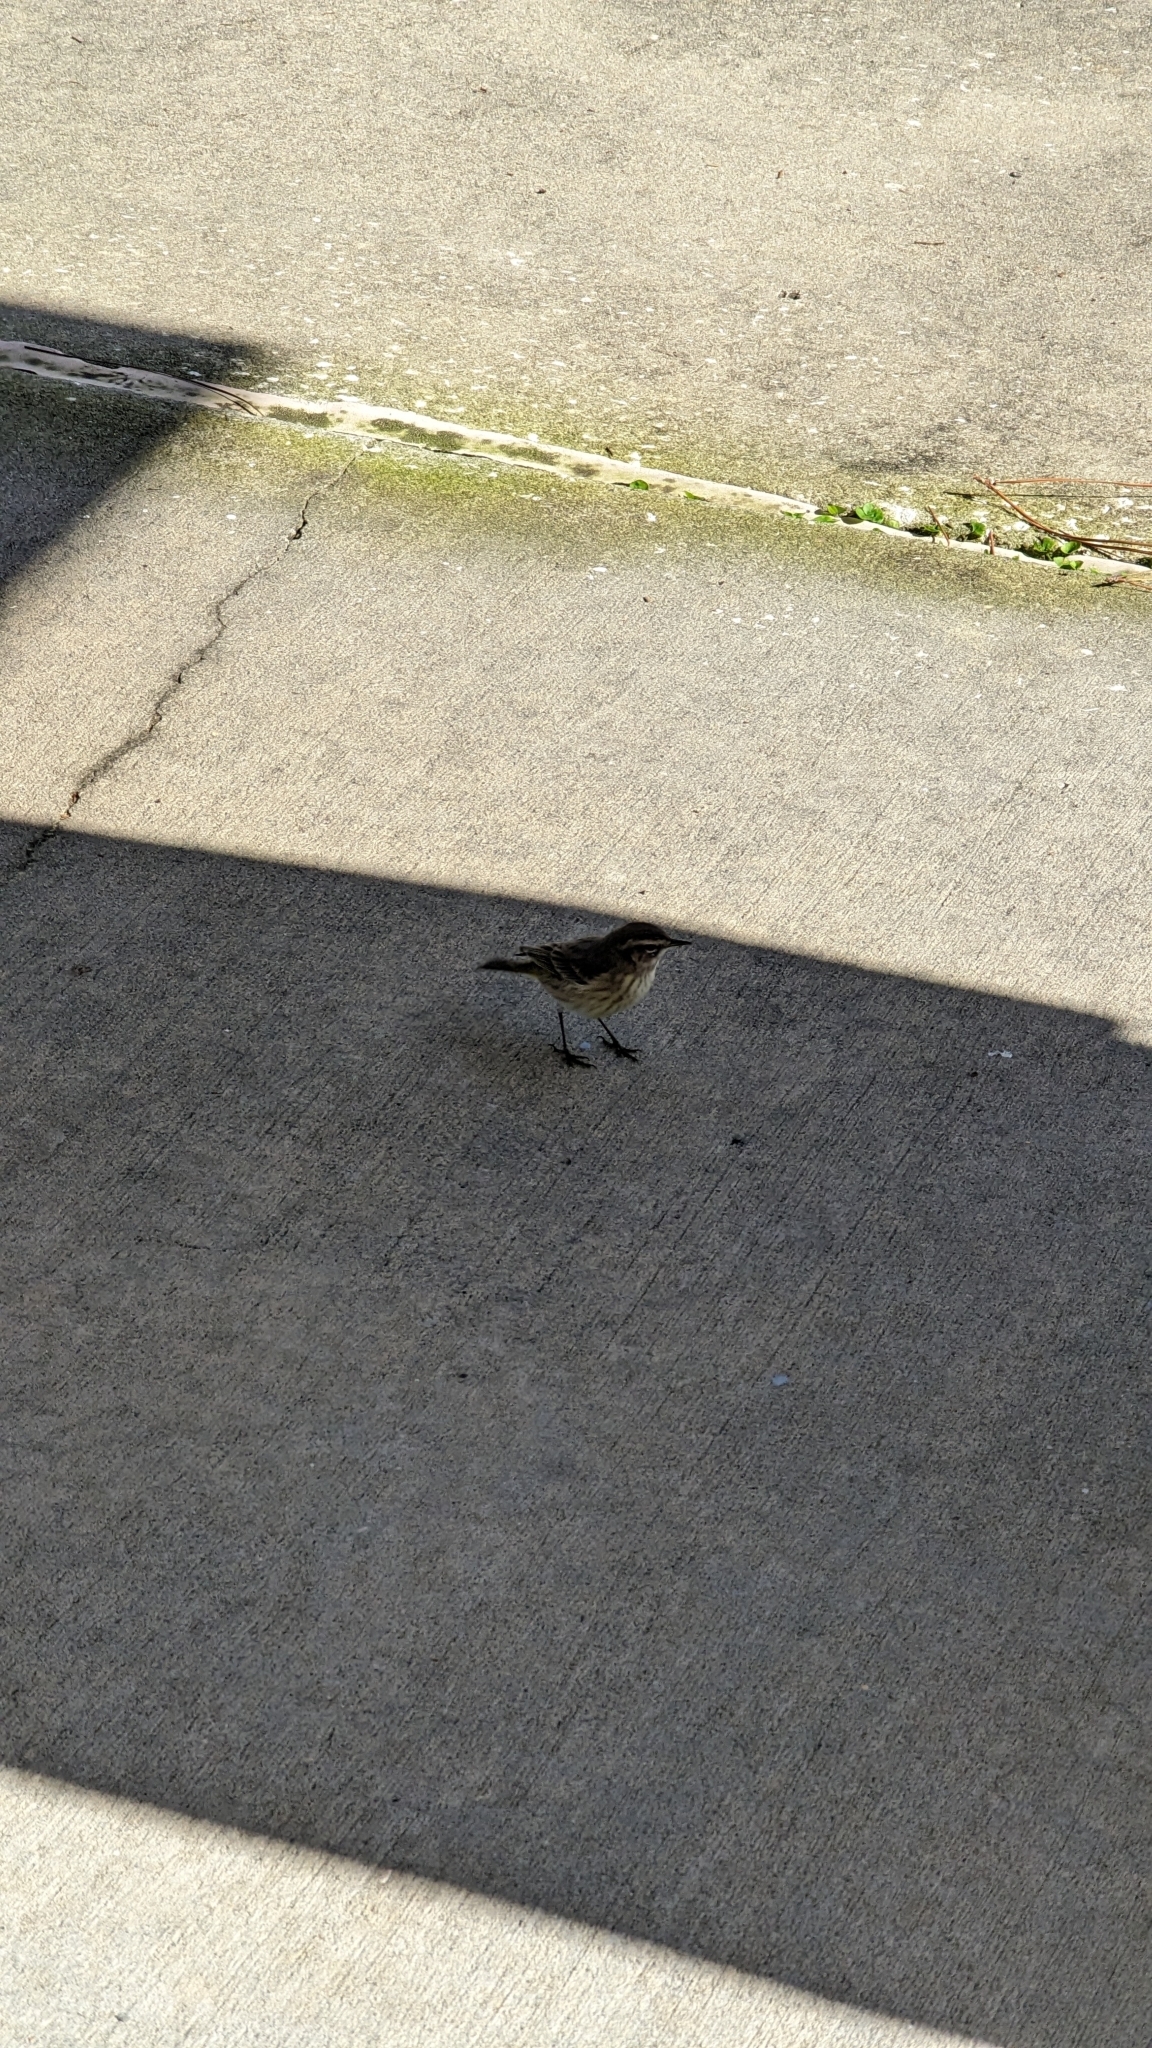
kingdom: Animalia
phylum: Chordata
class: Aves
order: Passeriformes
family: Parulidae
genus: Setophaga
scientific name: Setophaga palmarum
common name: Palm warbler
